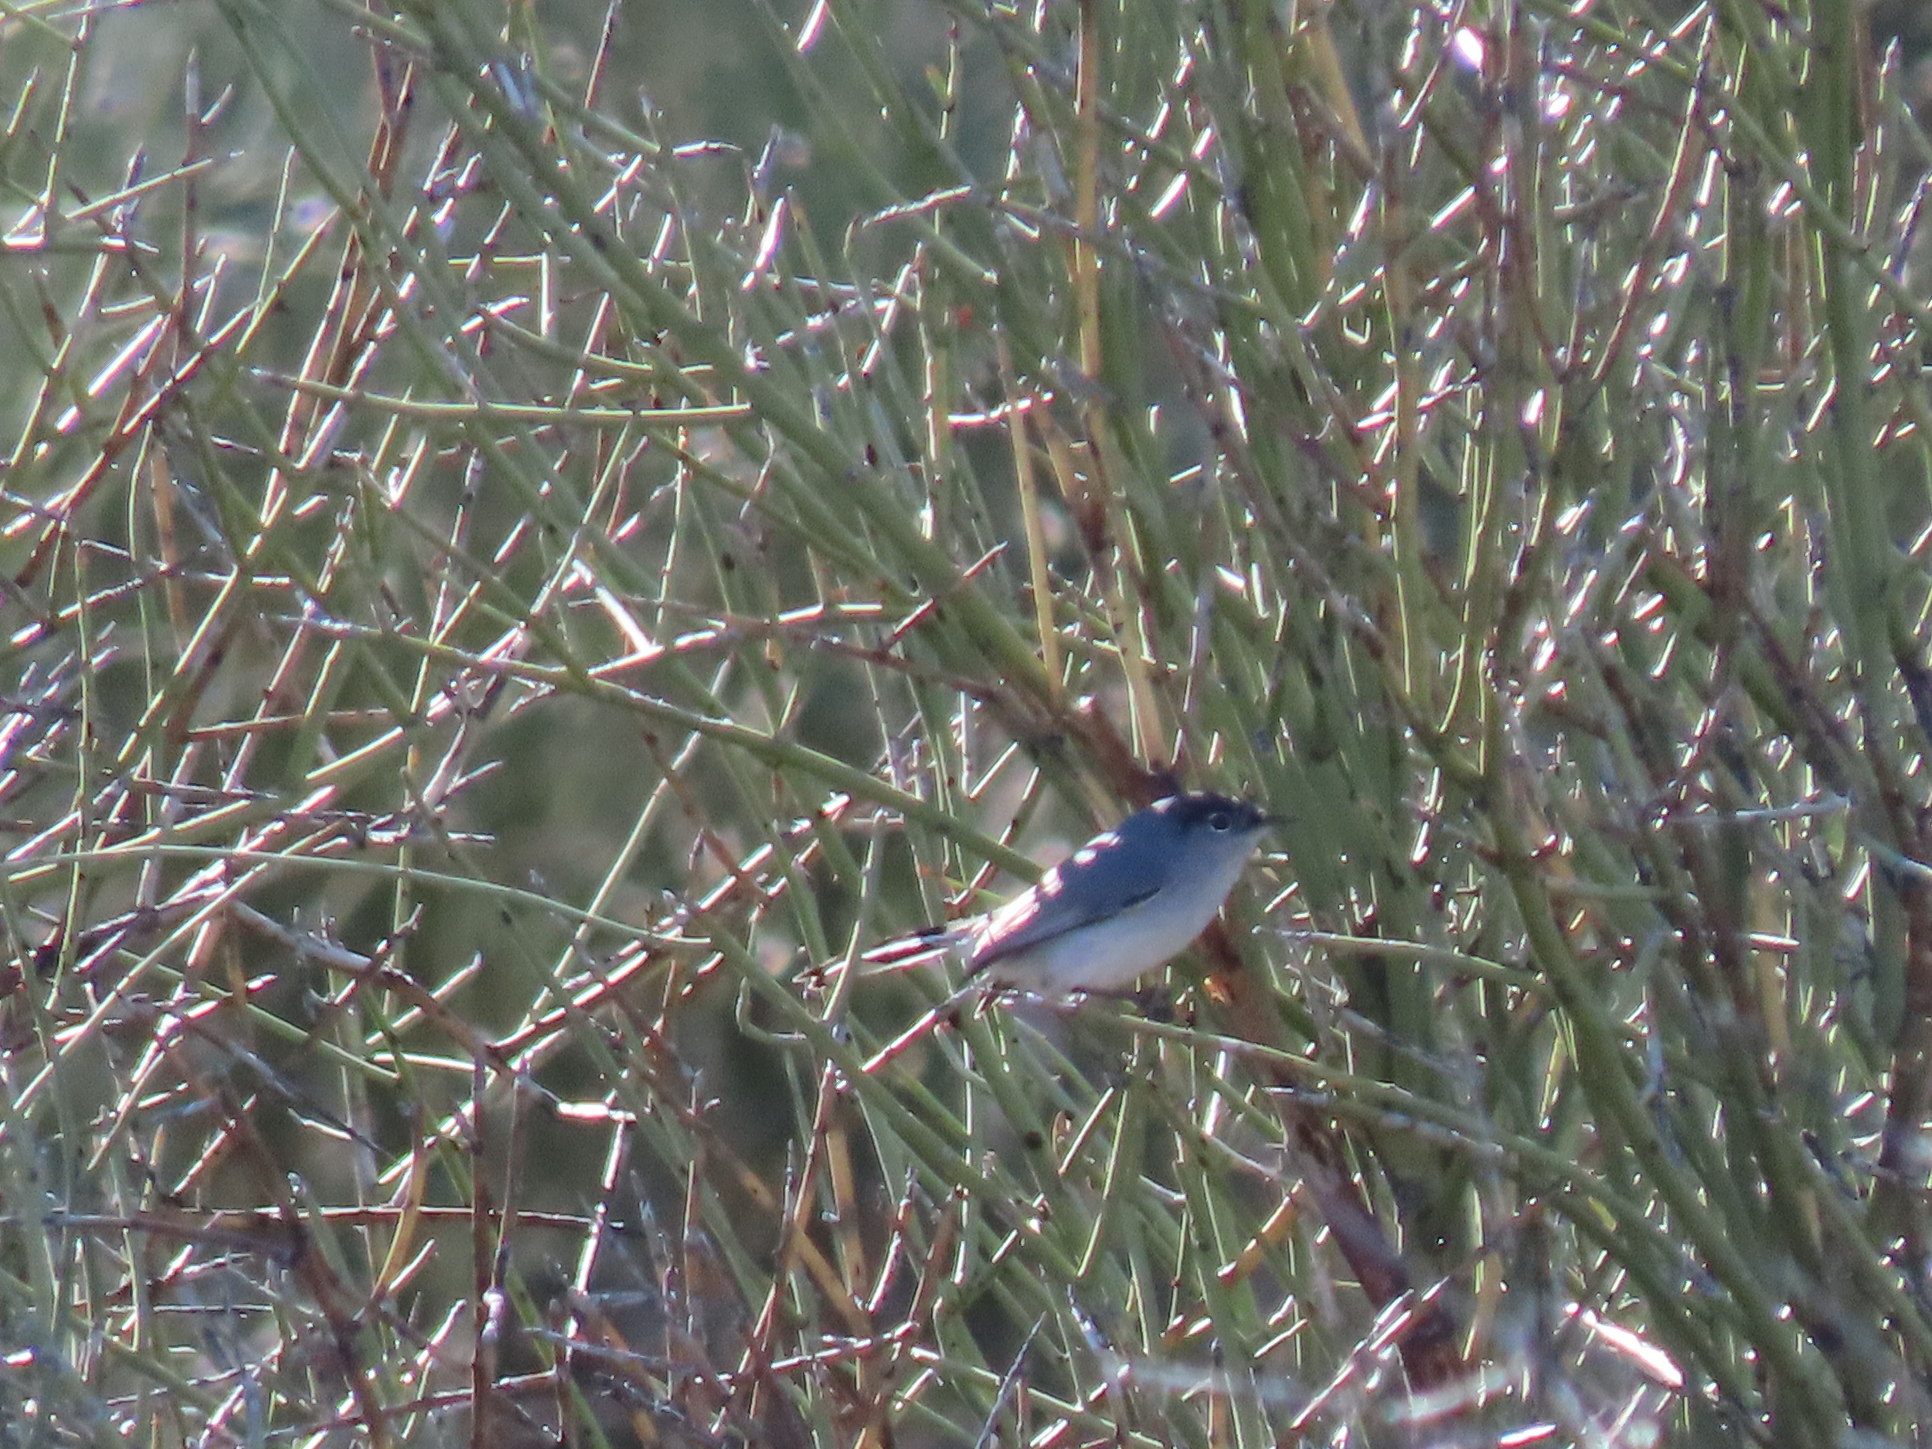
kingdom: Animalia
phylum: Chordata
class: Aves
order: Passeriformes
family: Polioptilidae
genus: Polioptila
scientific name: Polioptila melanura
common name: Black-tailed gnatcatcher
